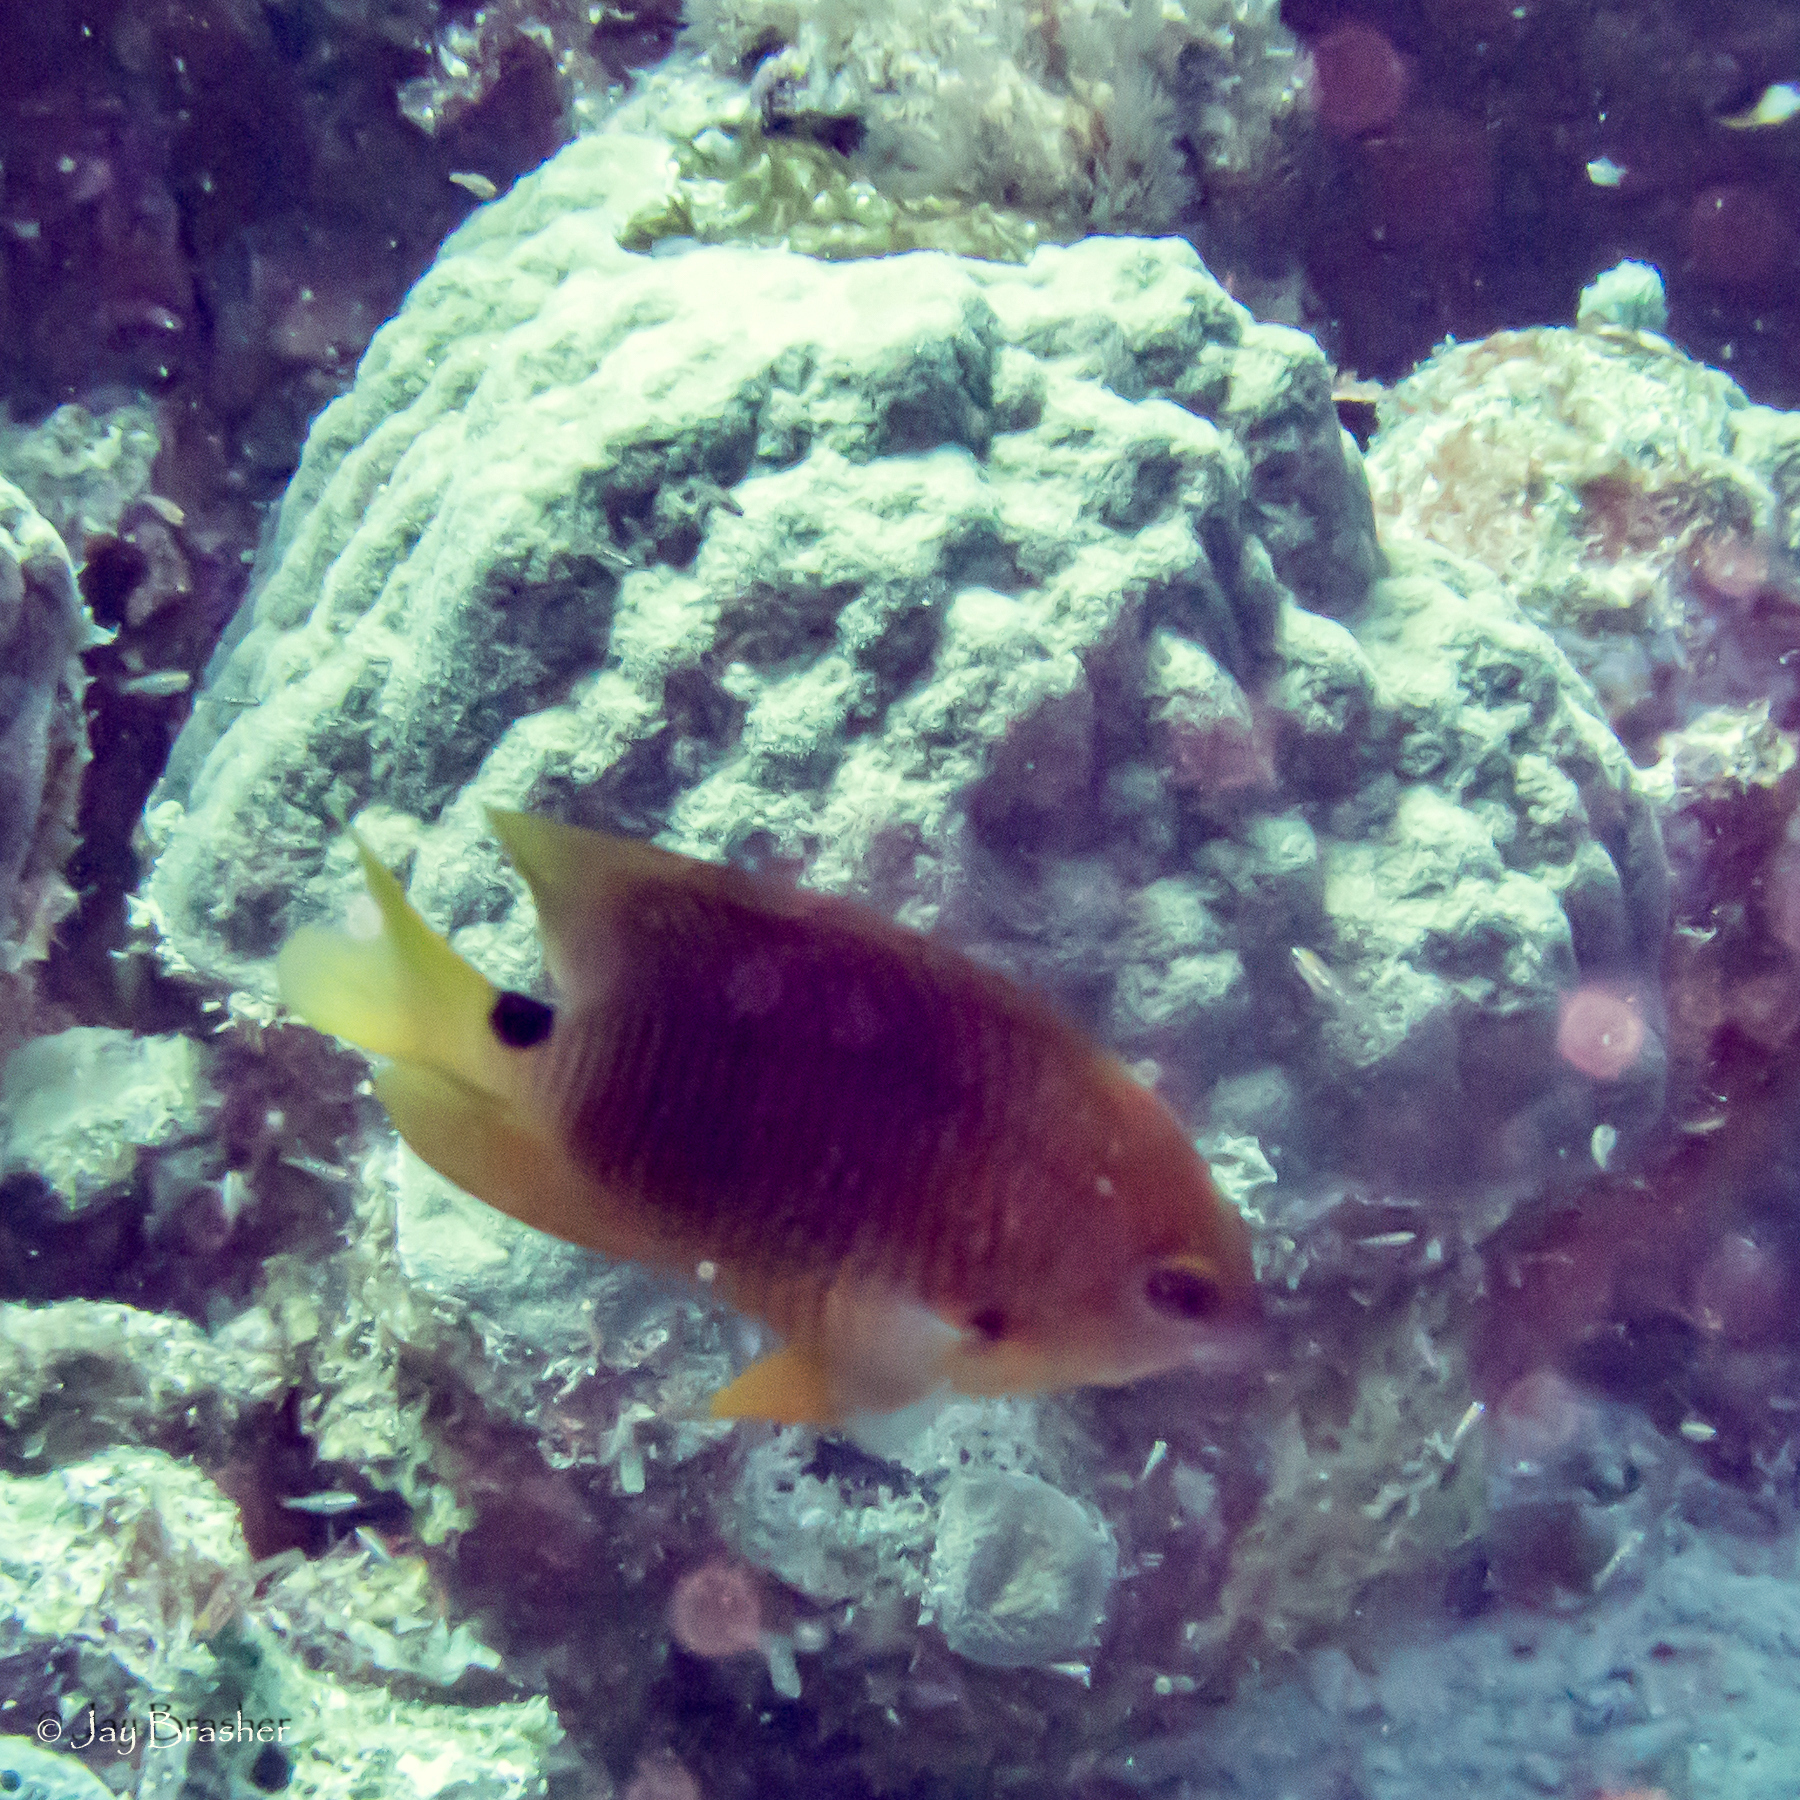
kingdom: Animalia
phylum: Chordata
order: Perciformes
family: Pomacentridae
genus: Stegastes
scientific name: Stegastes planifrons
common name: Threespot damselfish
